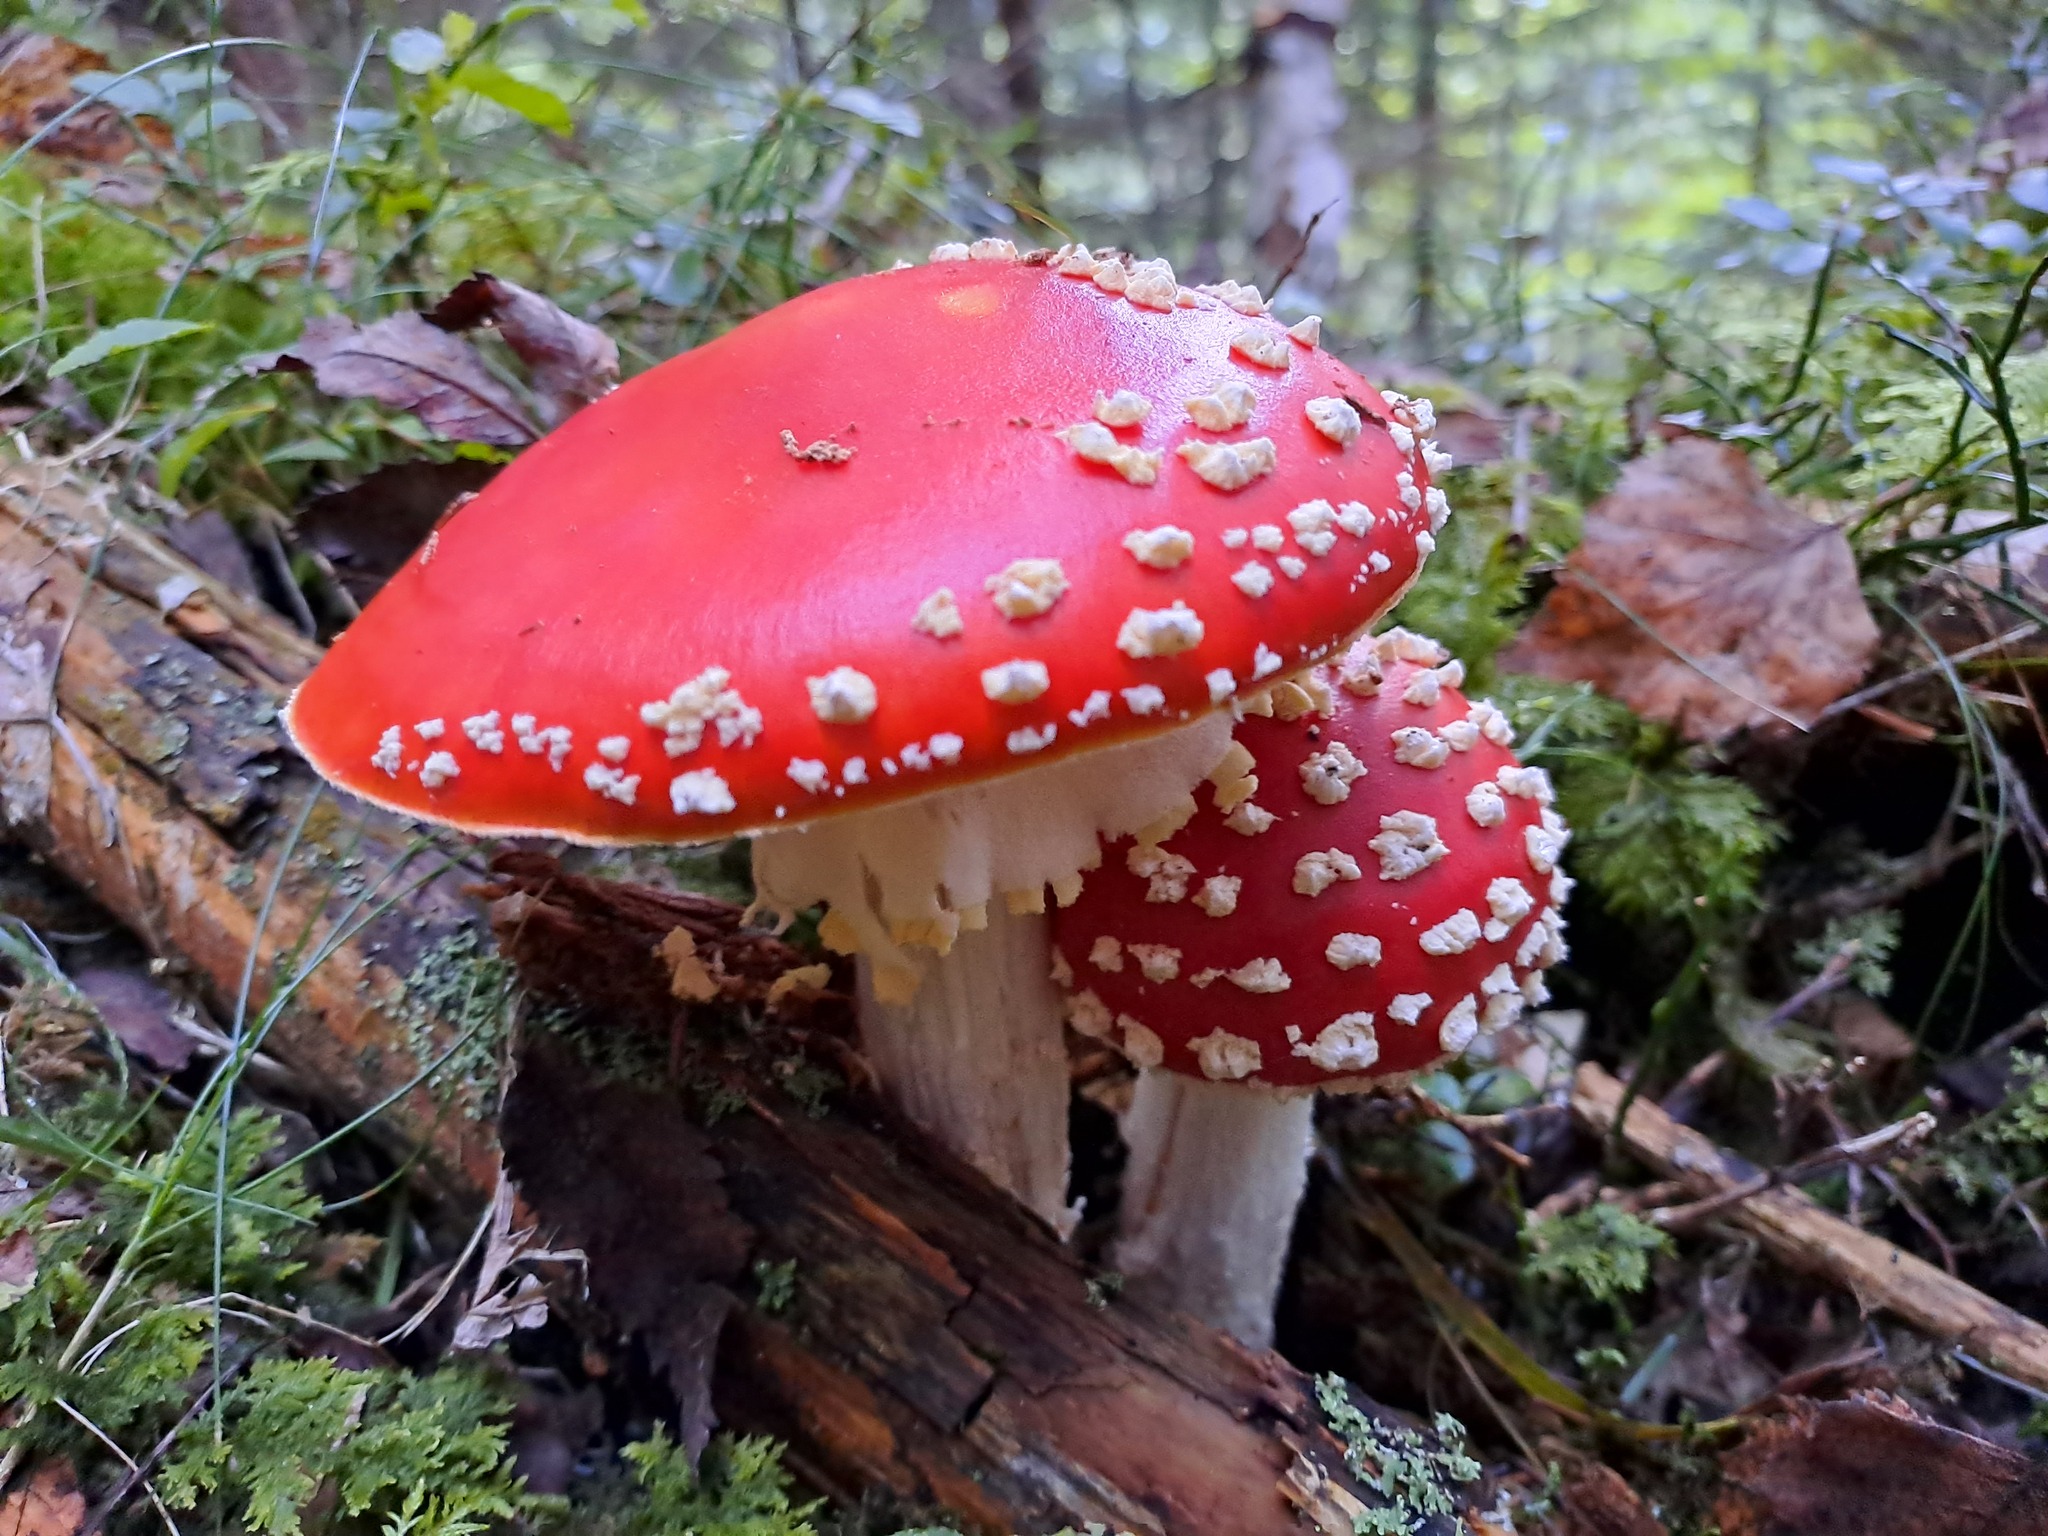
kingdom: Fungi
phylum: Basidiomycota
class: Agaricomycetes
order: Agaricales
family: Amanitaceae
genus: Amanita
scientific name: Amanita muscaria
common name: Fly agaric
